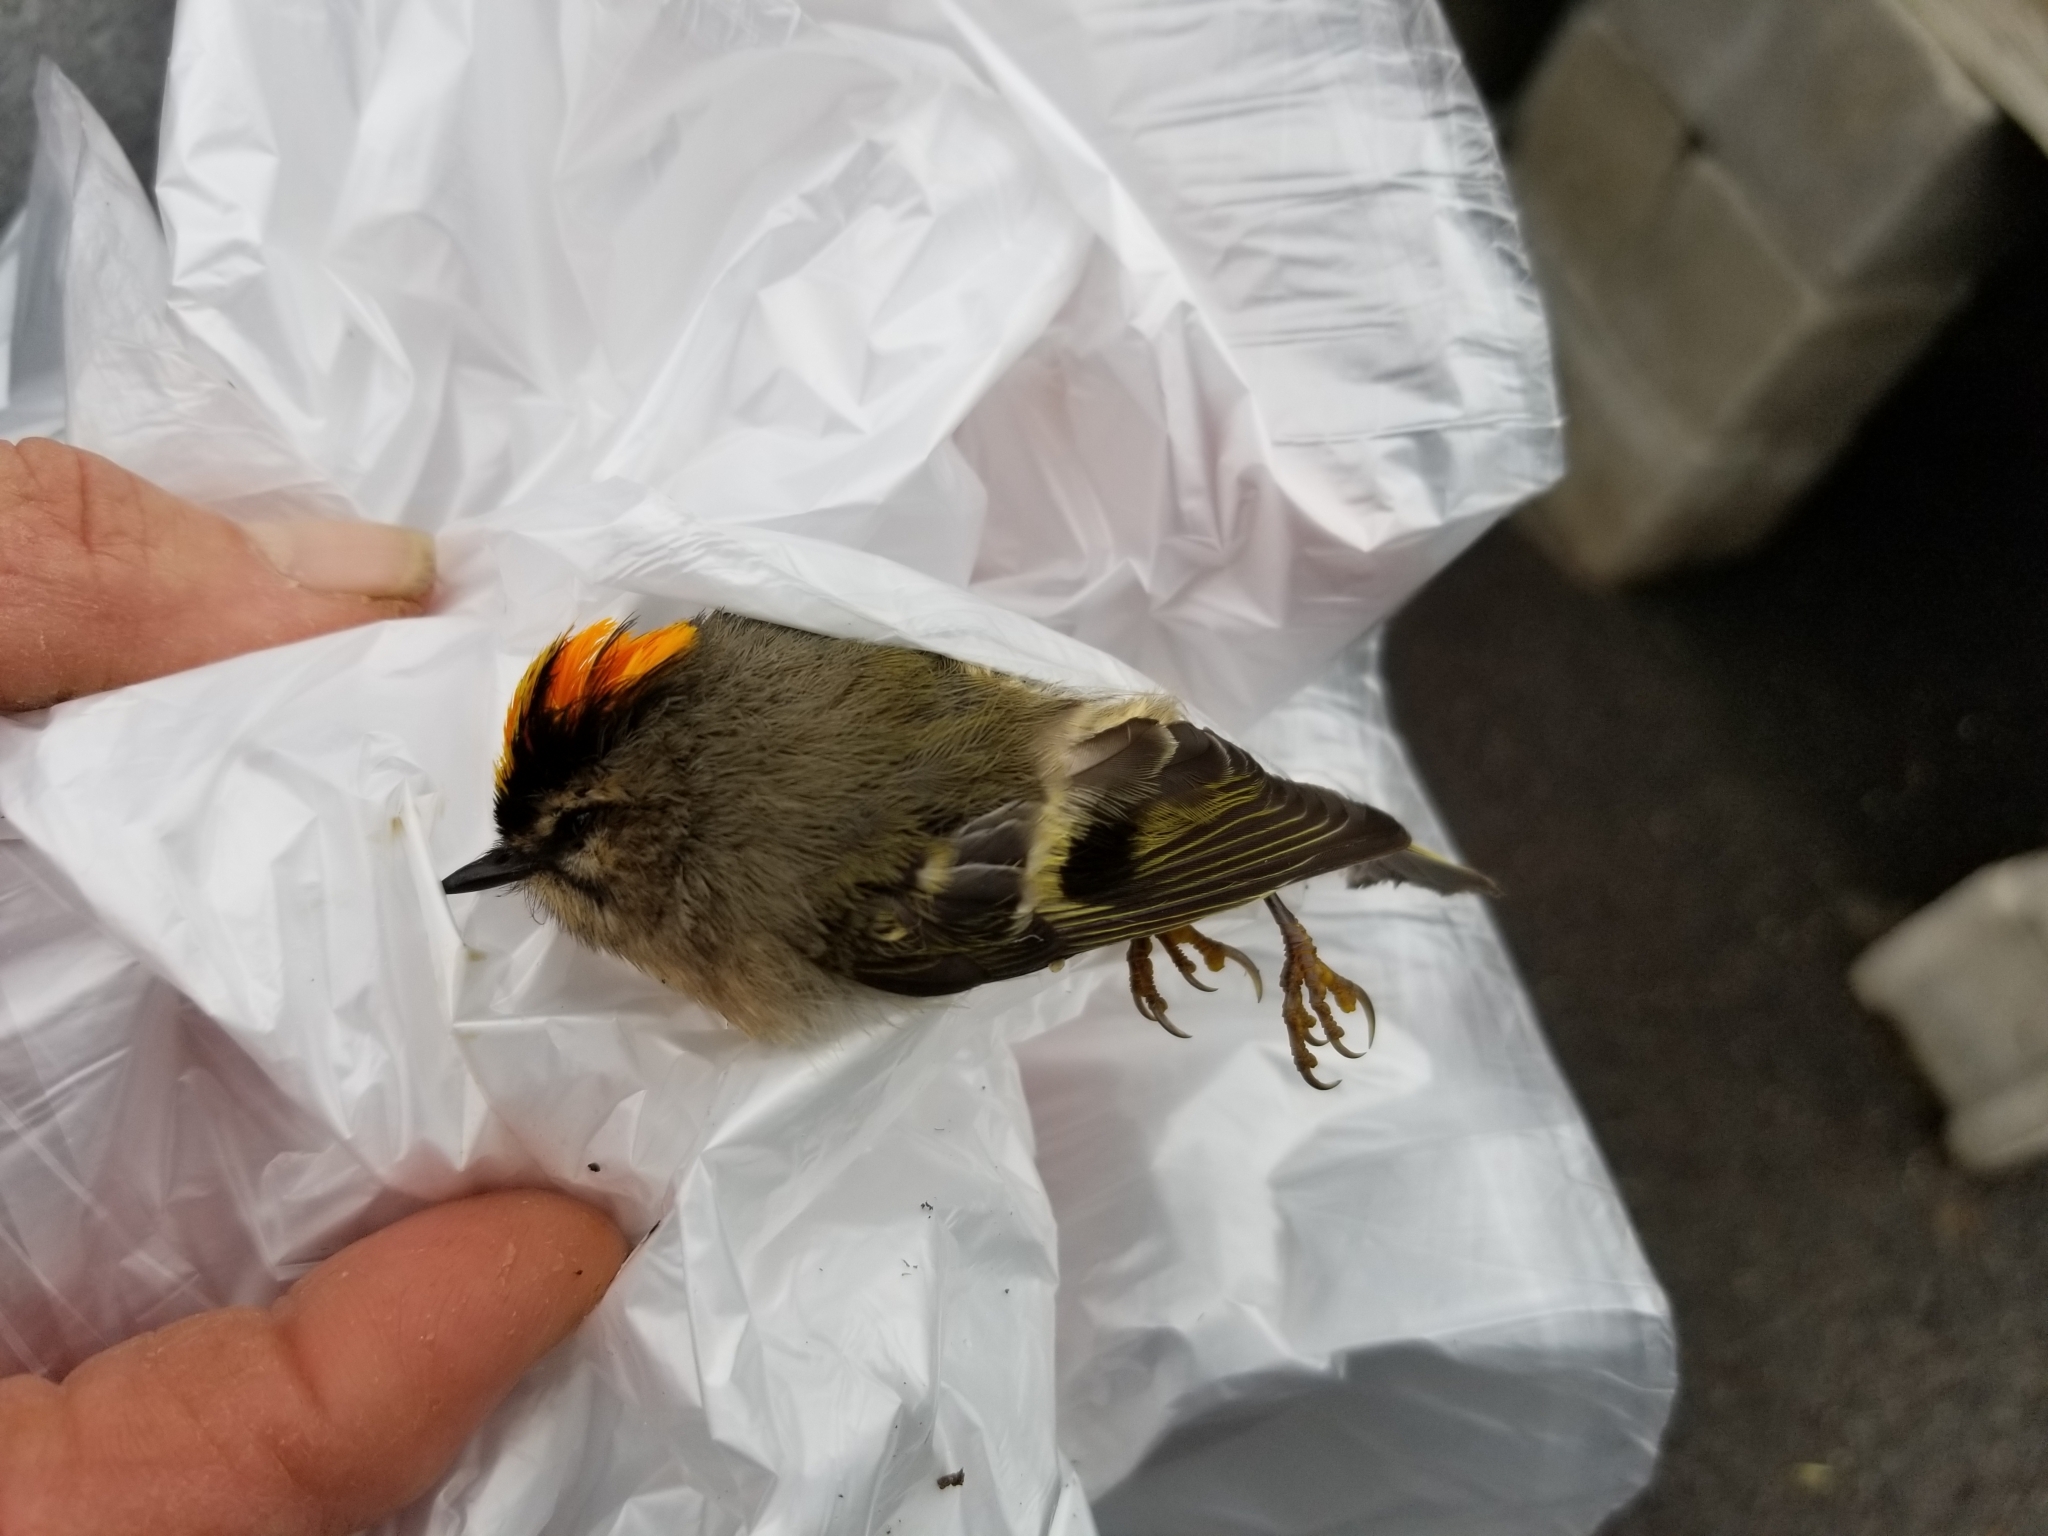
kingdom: Animalia
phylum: Chordata
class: Aves
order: Passeriformes
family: Regulidae
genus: Regulus
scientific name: Regulus satrapa
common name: Golden-crowned kinglet
